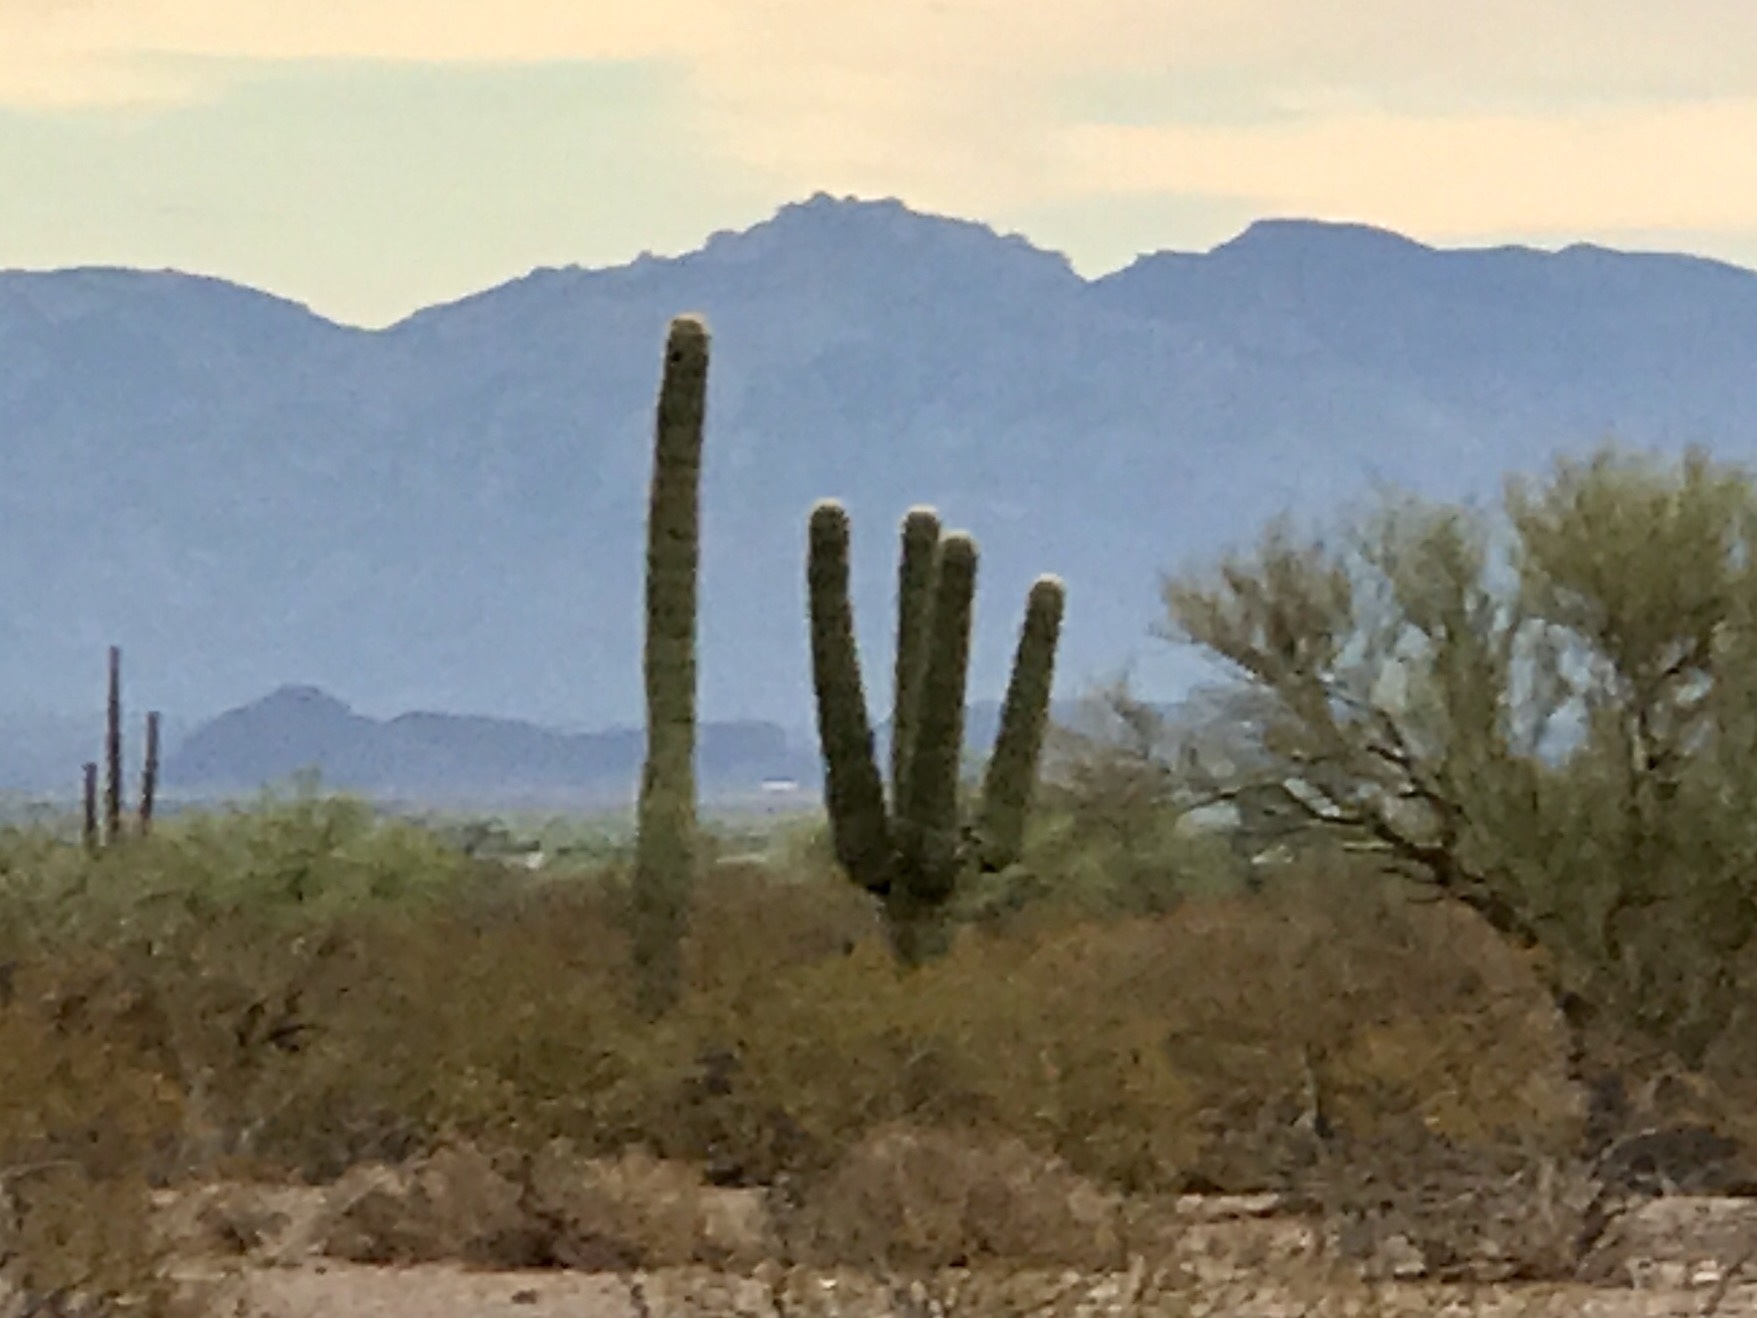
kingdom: Plantae
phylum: Tracheophyta
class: Magnoliopsida
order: Caryophyllales
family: Cactaceae
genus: Carnegiea
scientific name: Carnegiea gigantea
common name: Saguaro
